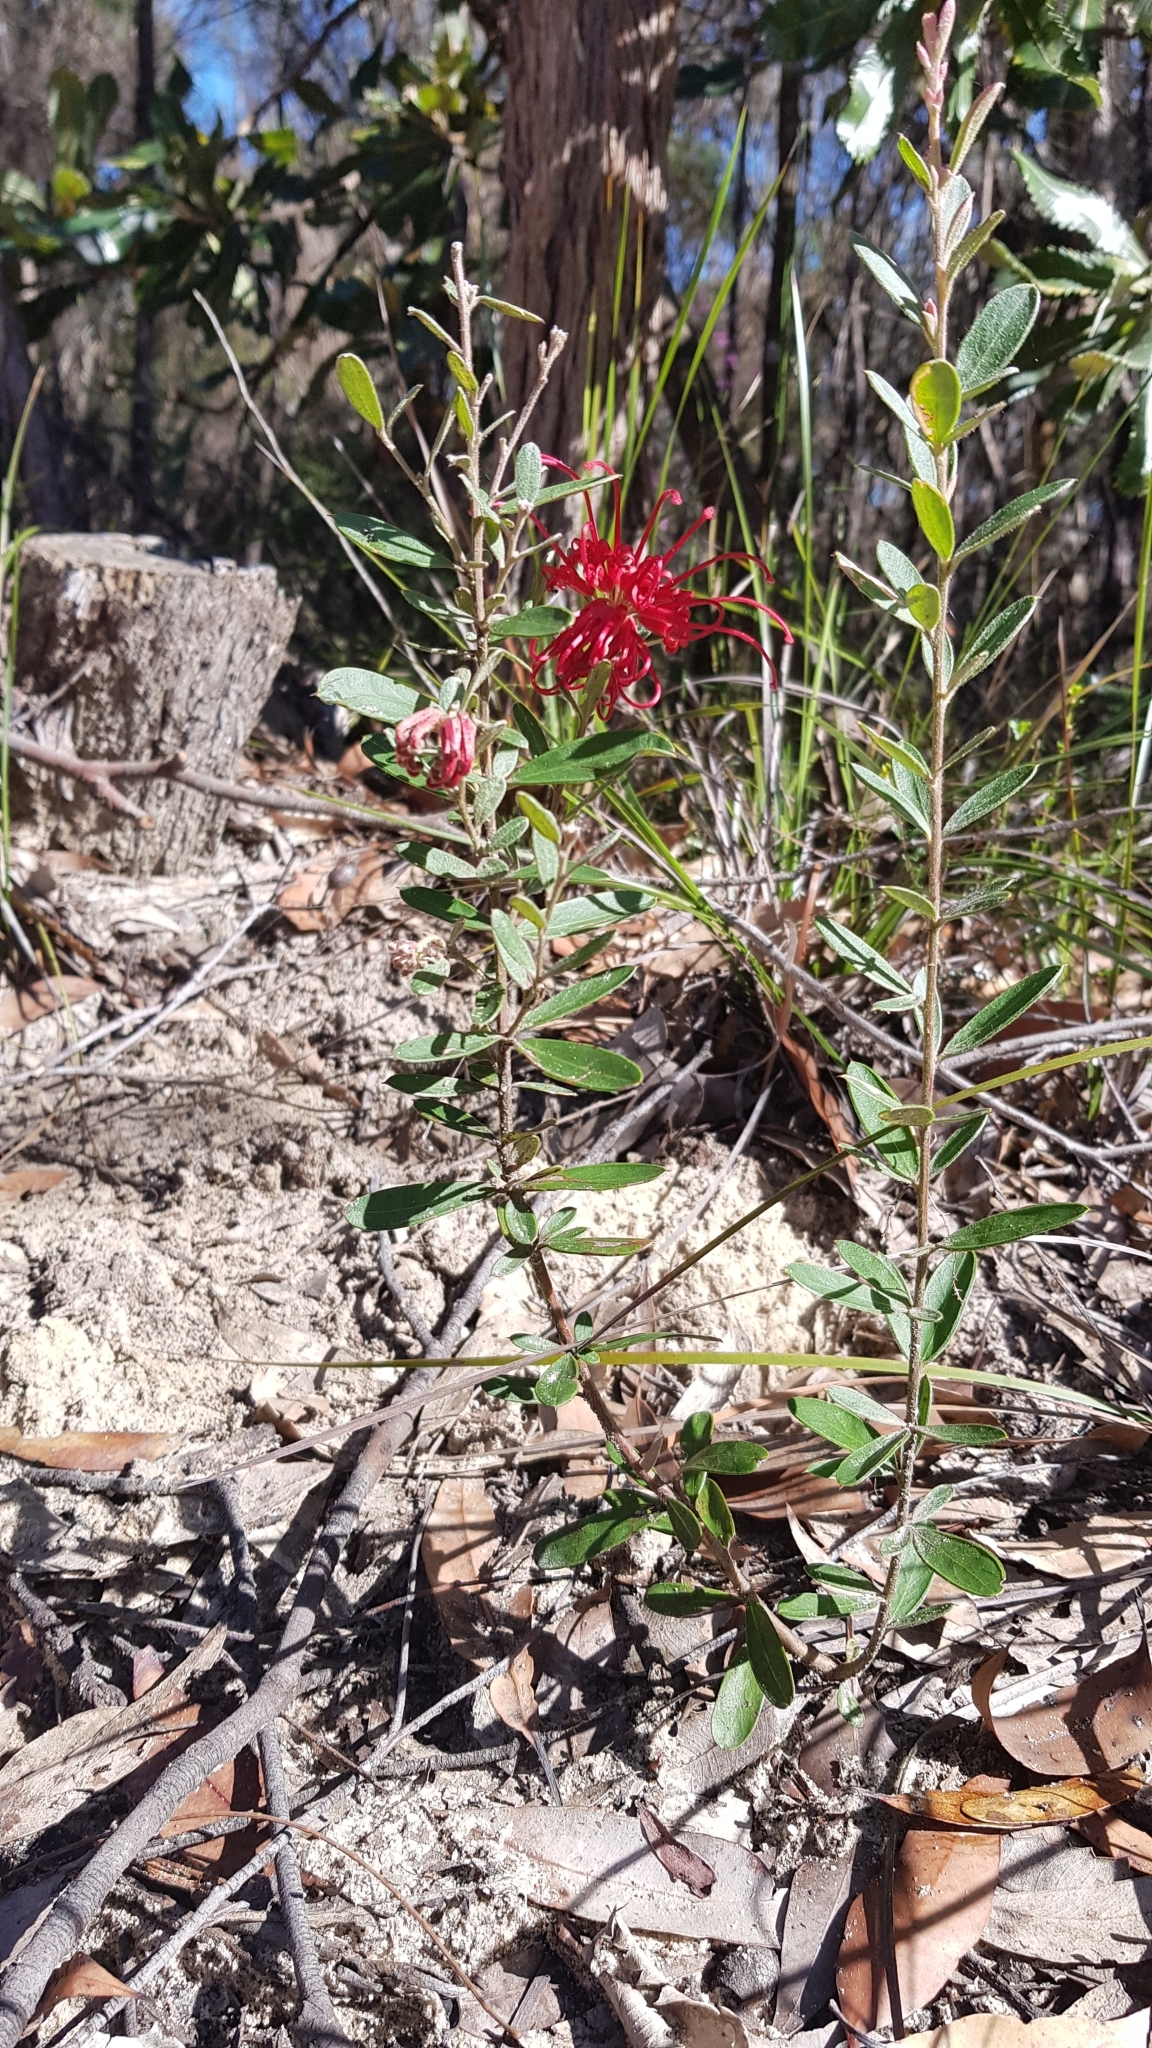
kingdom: Plantae
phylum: Tracheophyta
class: Magnoliopsida
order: Proteales
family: Proteaceae
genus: Grevillea
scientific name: Grevillea speciosa
